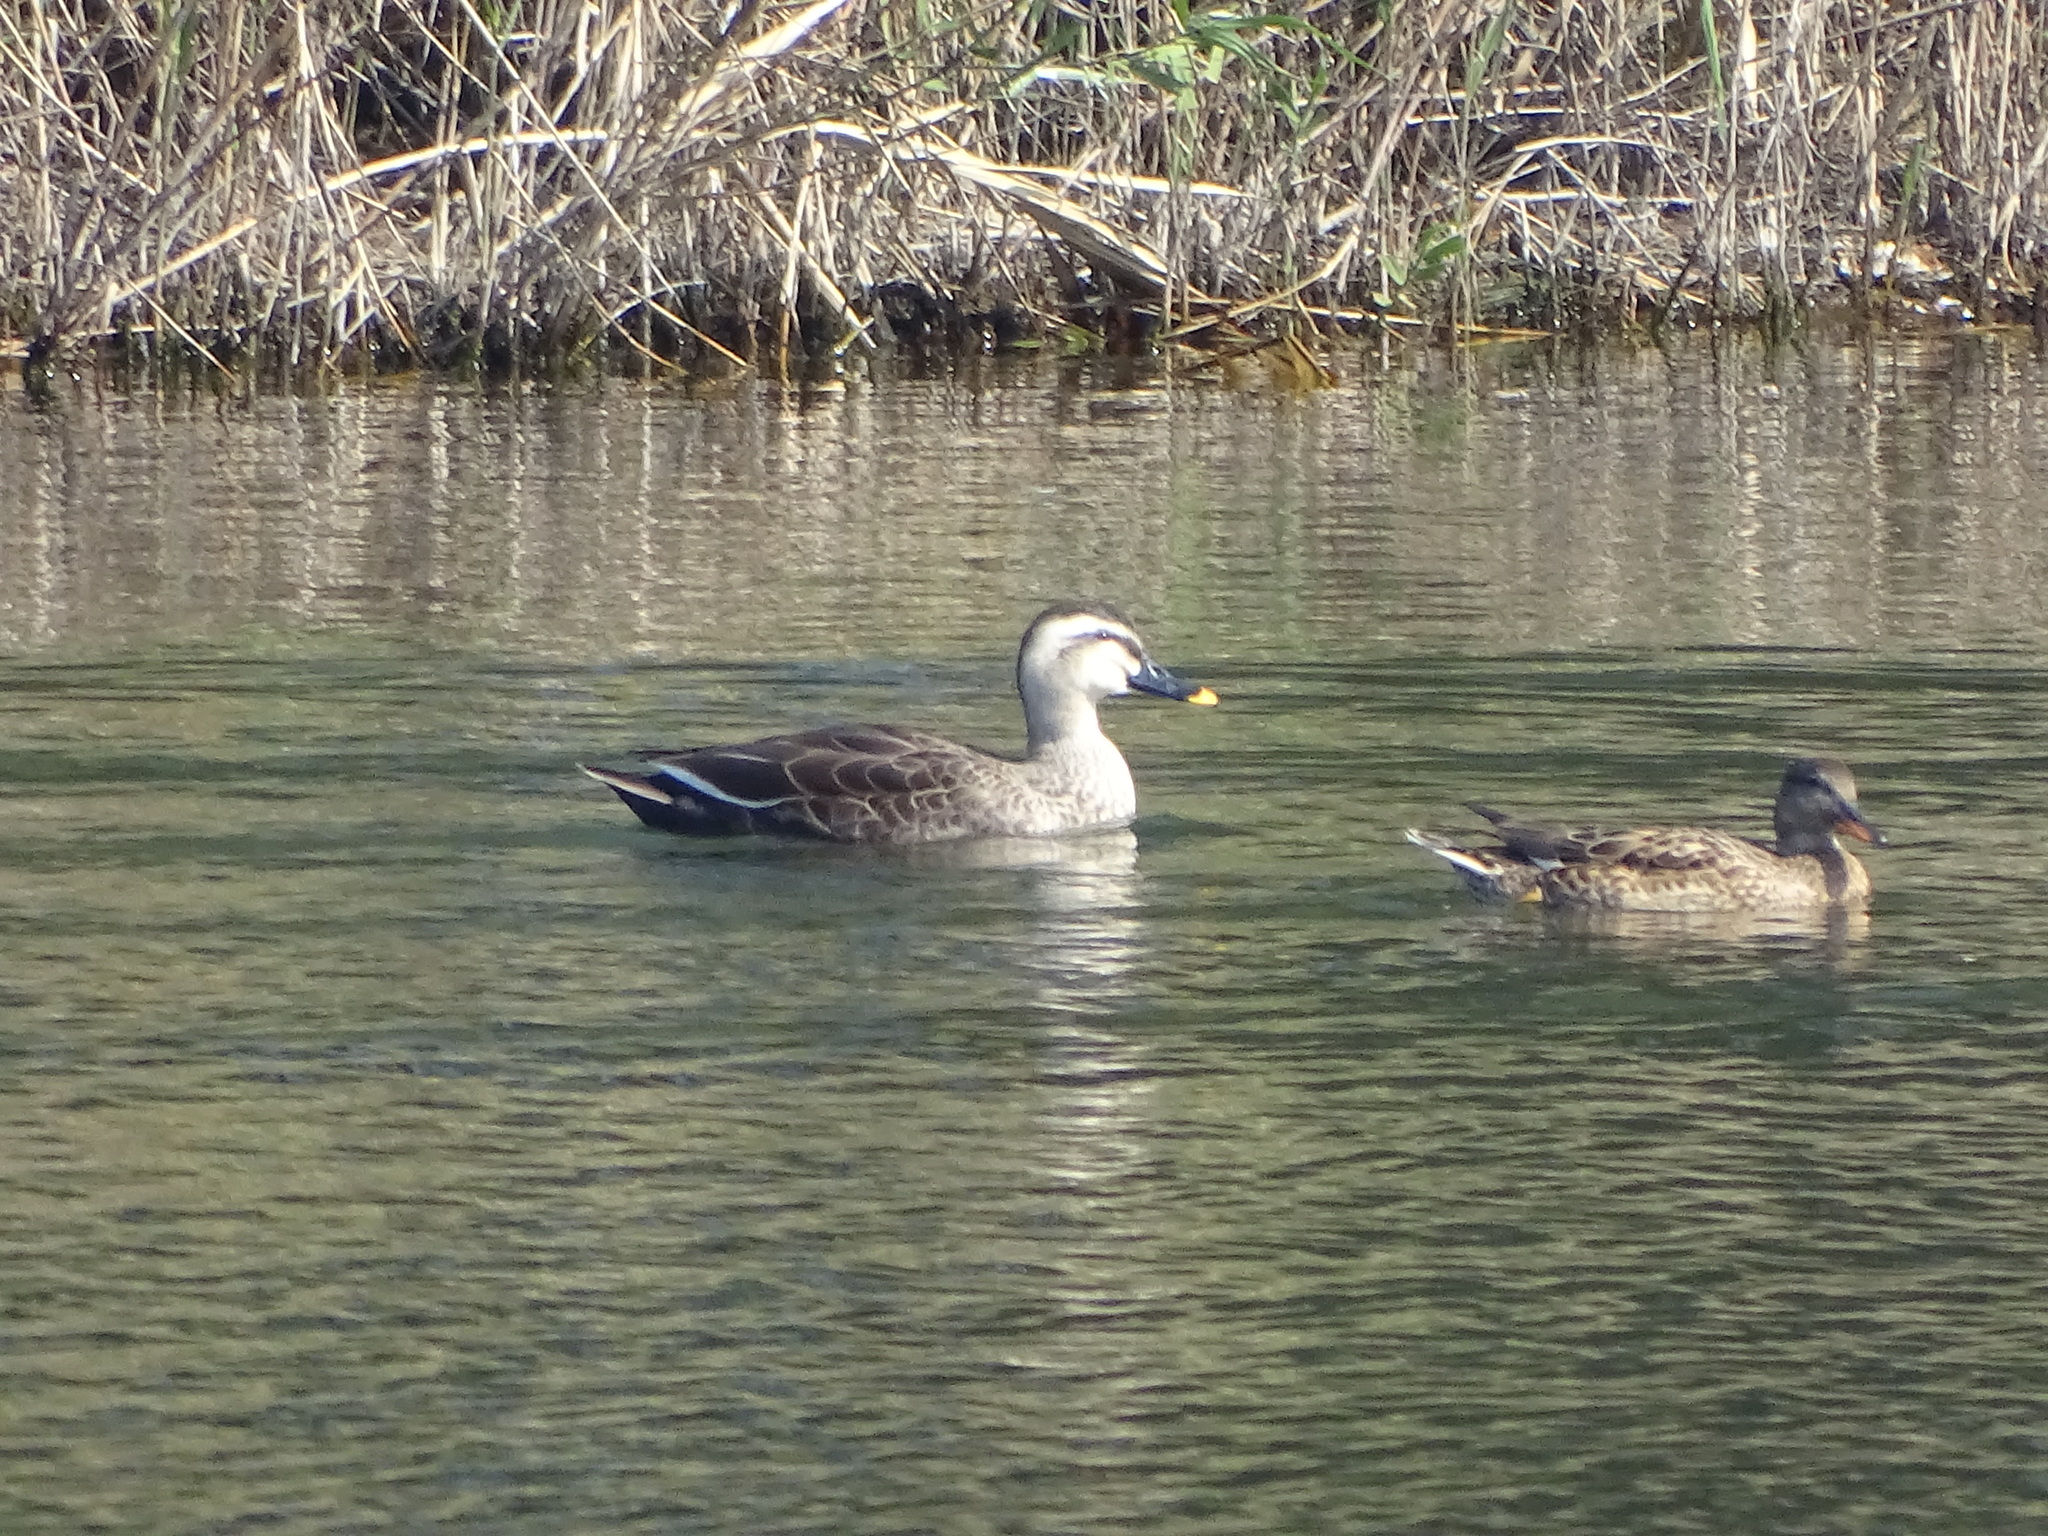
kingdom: Animalia
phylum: Chordata
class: Aves
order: Anseriformes
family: Anatidae
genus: Anas
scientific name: Anas zonorhyncha
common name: Eastern spot-billed duck
